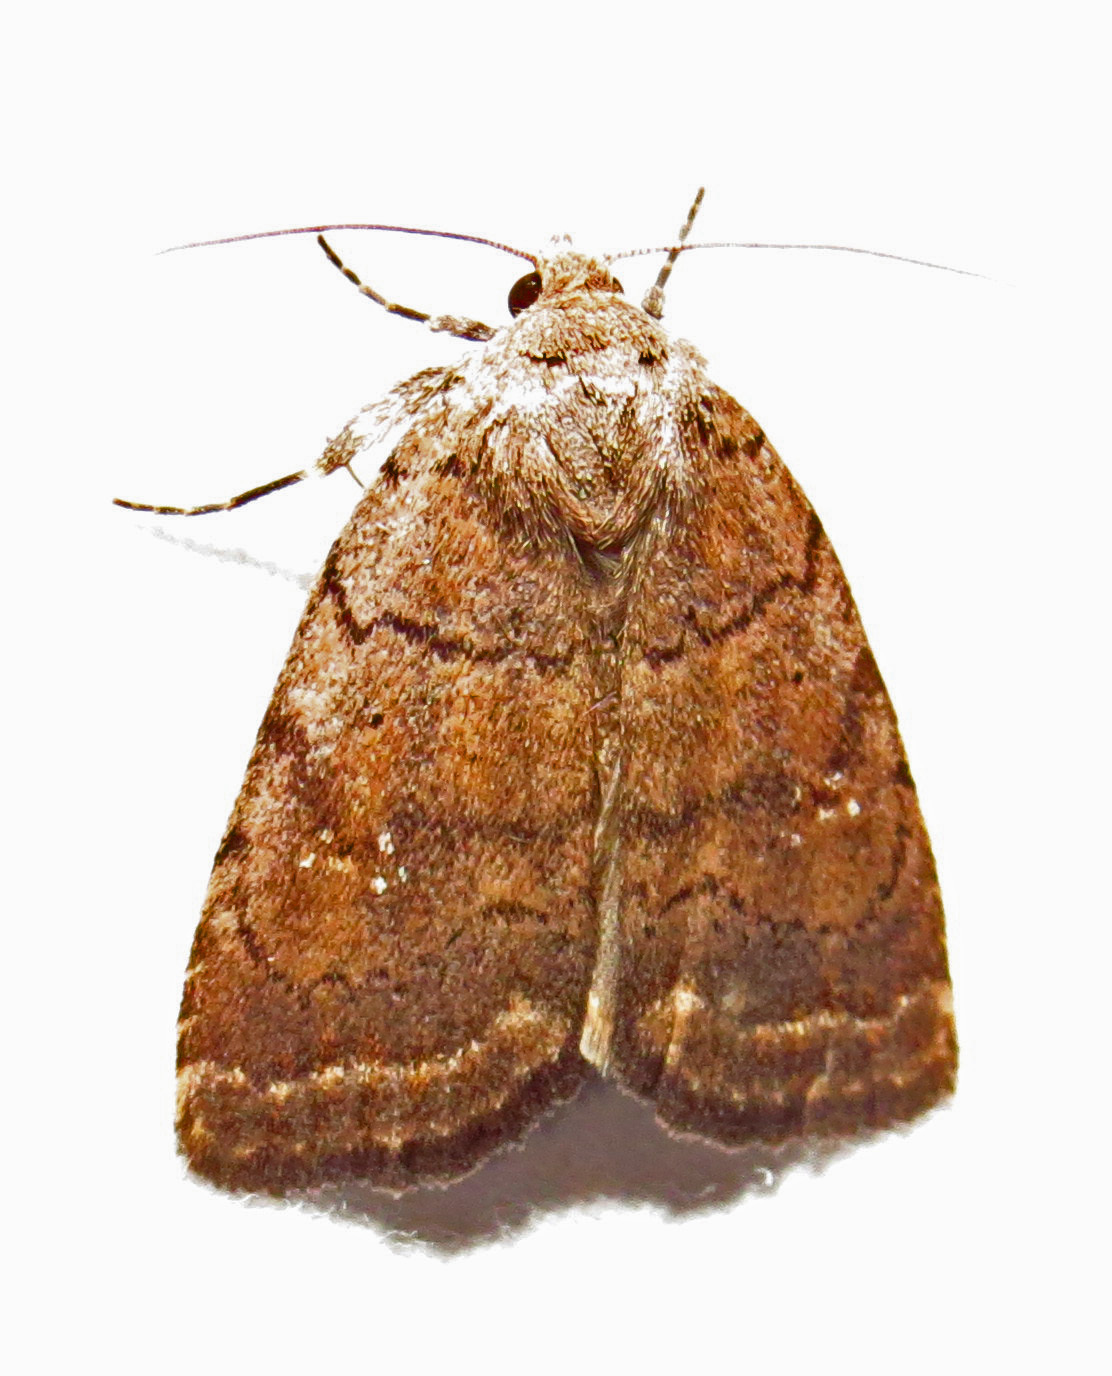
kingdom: Animalia
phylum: Arthropoda
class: Insecta
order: Lepidoptera
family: Noctuidae
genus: Athetis
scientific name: Athetis tarda
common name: Slowpoke moth
